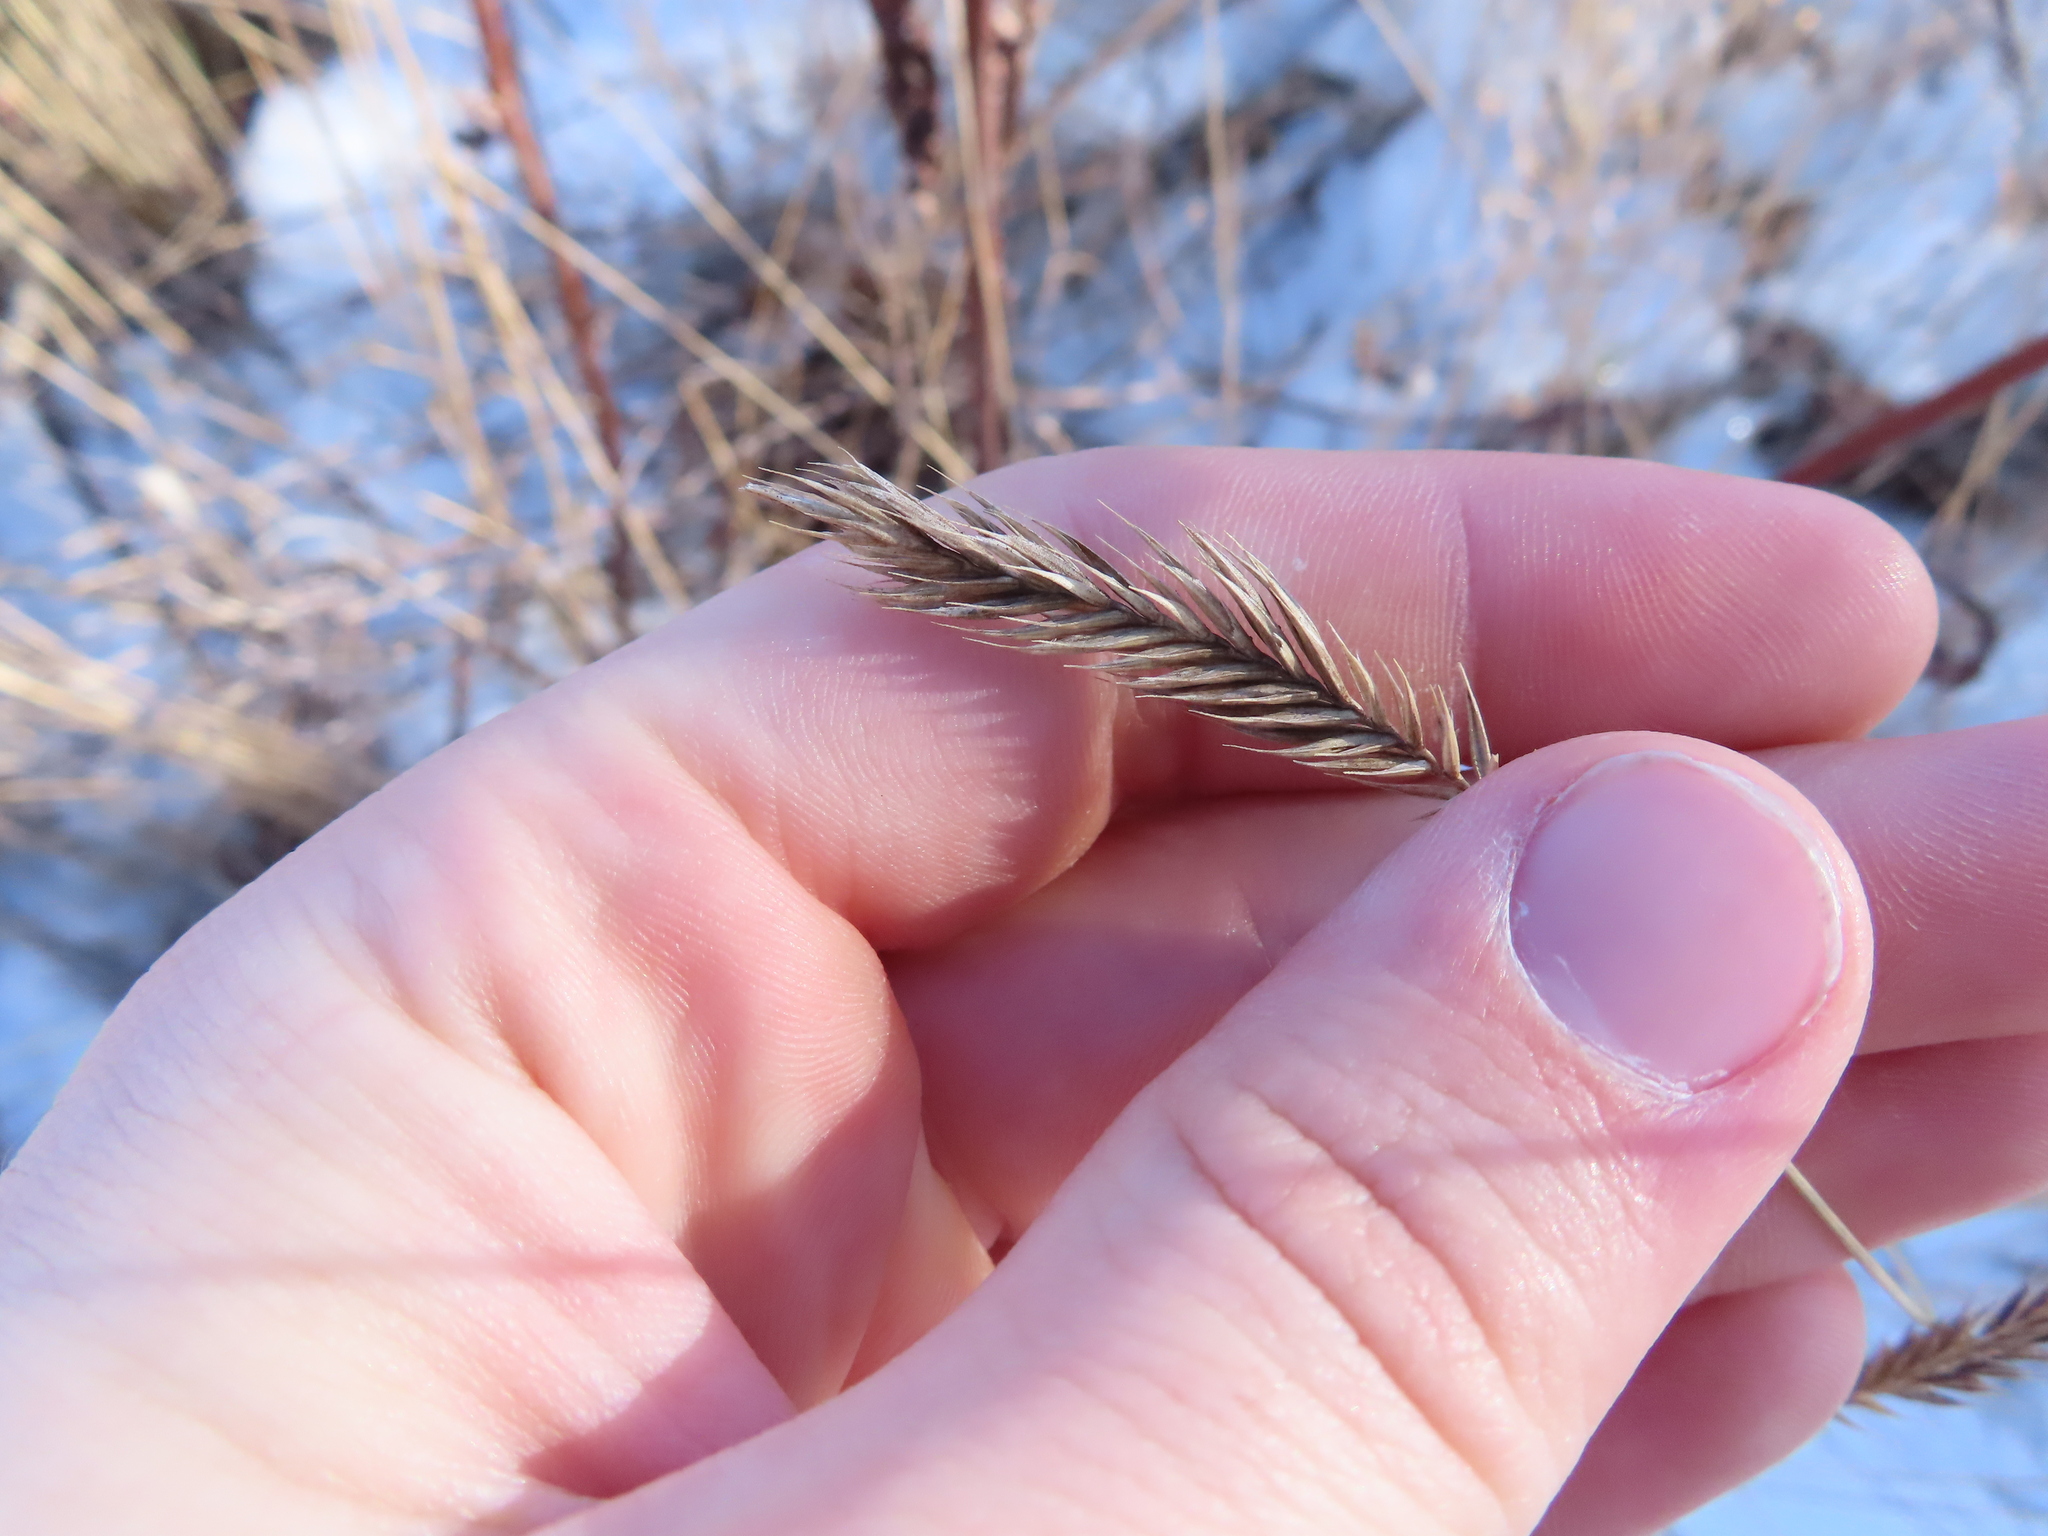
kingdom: Plantae
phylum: Tracheophyta
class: Liliopsida
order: Poales
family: Poaceae
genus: Agropyron
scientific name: Agropyron cristatum
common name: Crested wheatgrass
